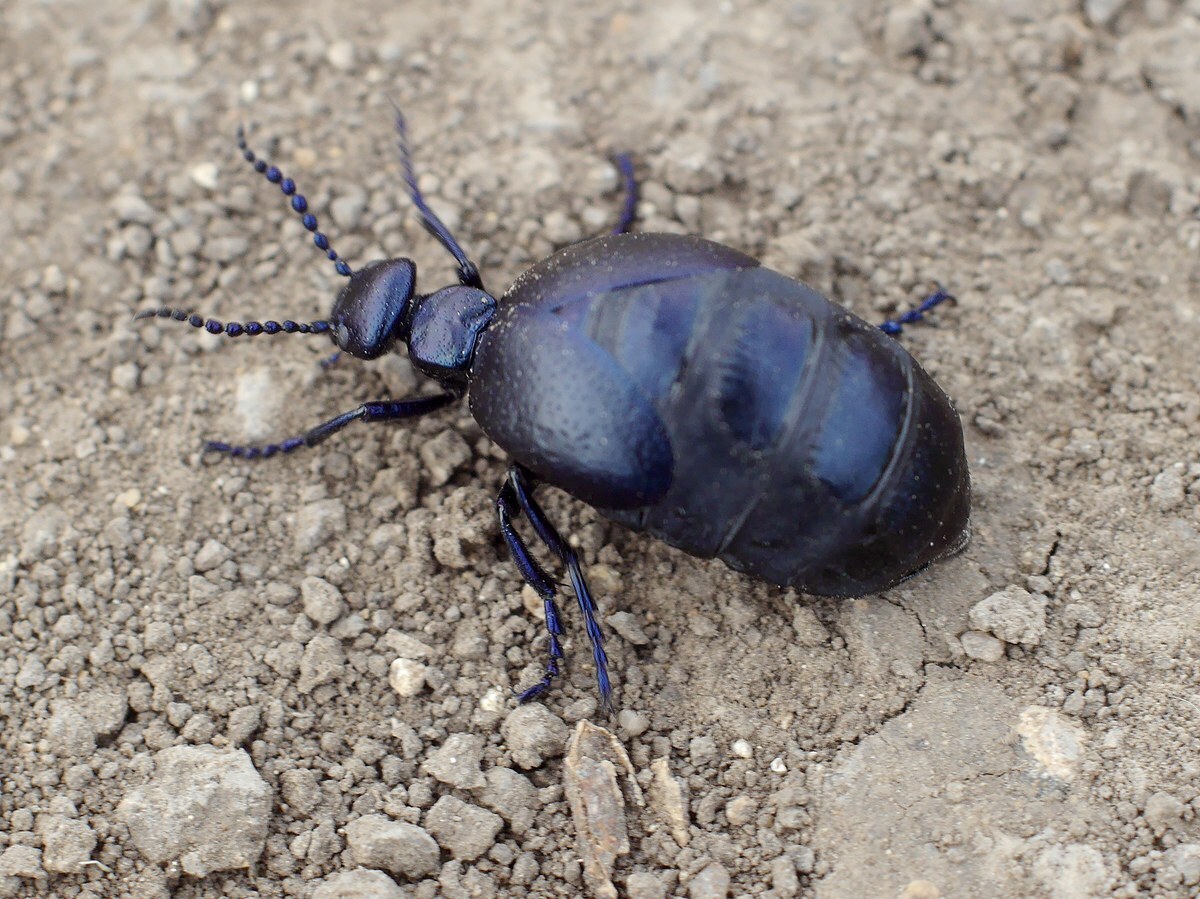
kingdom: Animalia
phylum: Arthropoda
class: Insecta
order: Coleoptera
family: Meloidae
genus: Meloe
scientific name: Meloe autumnalis
